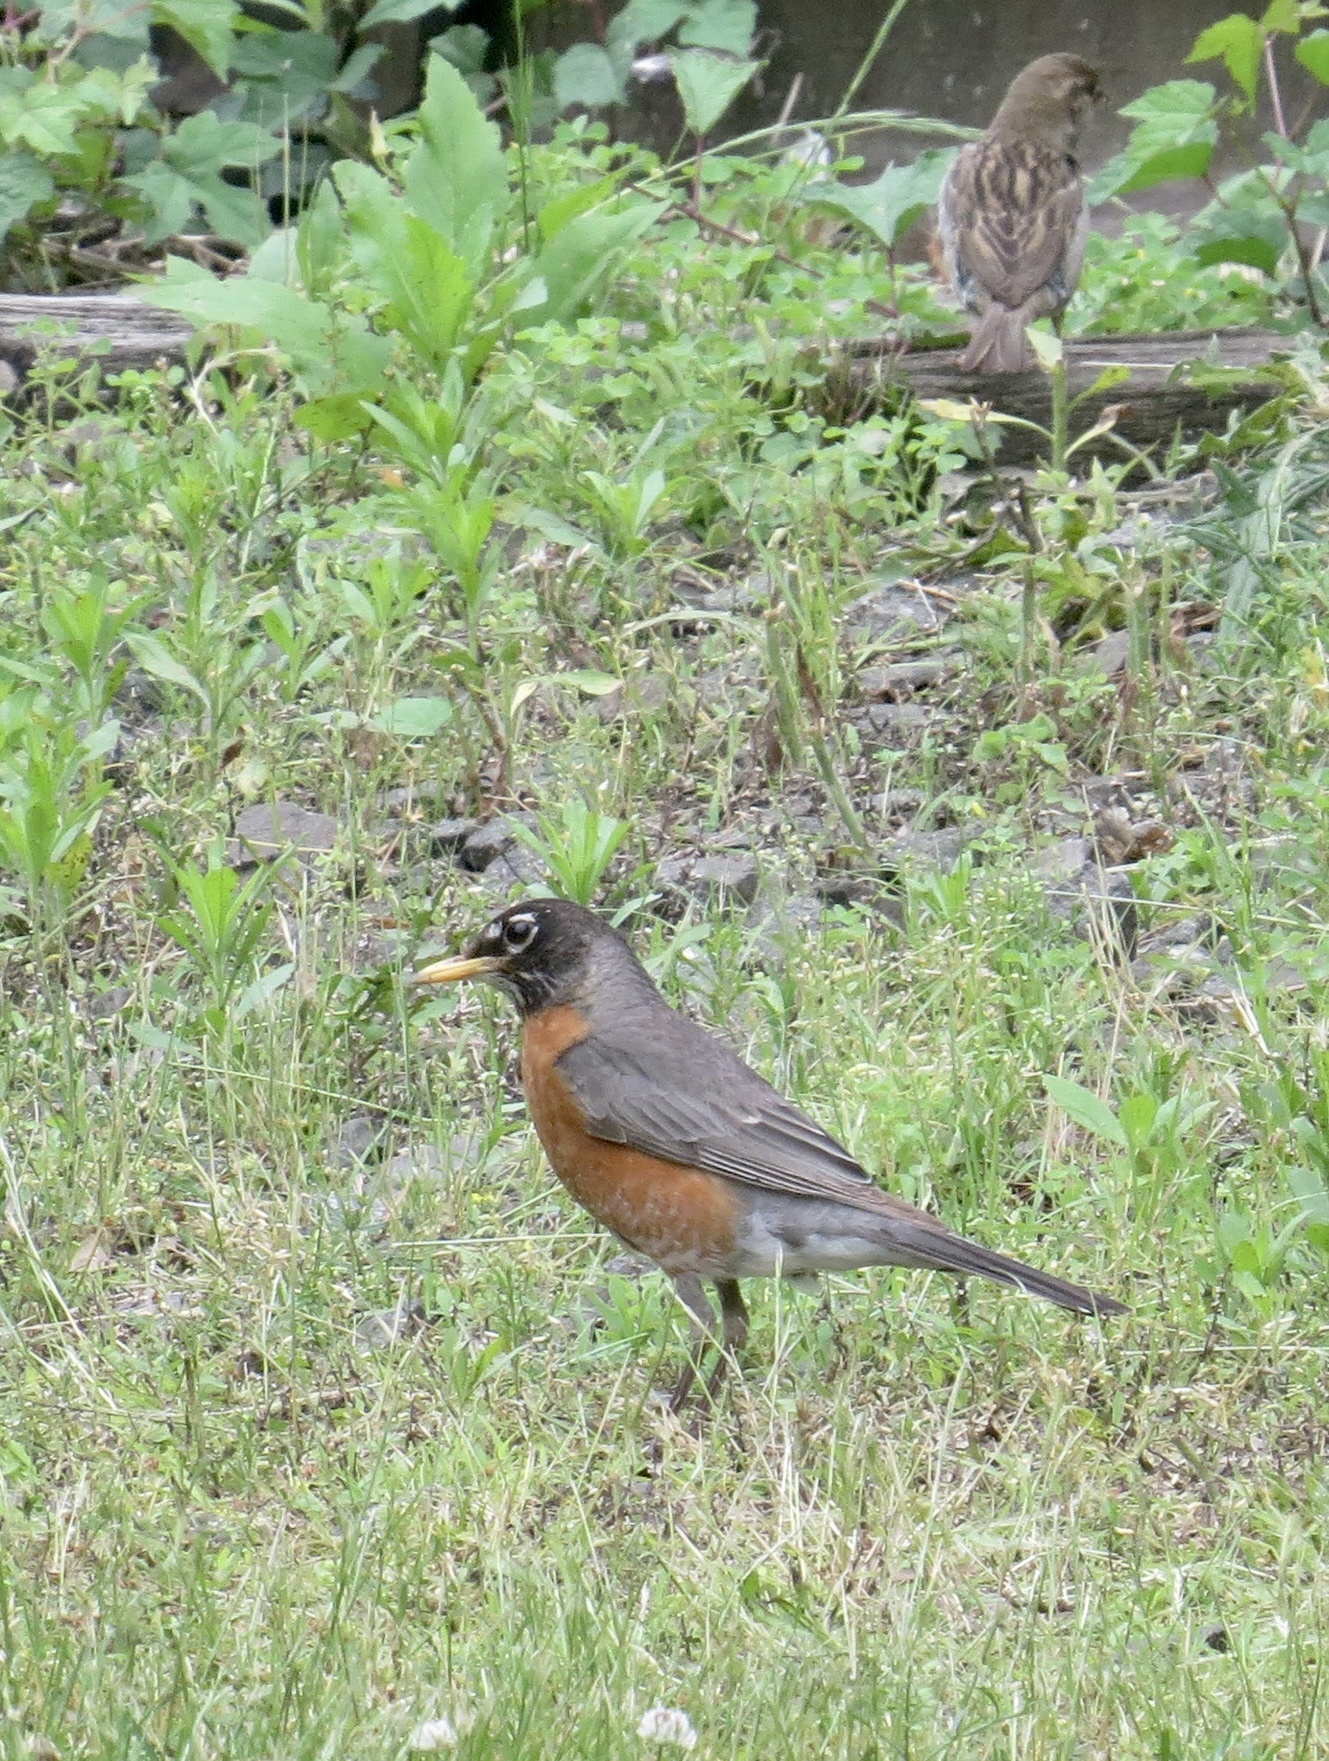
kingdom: Animalia
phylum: Chordata
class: Aves
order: Passeriformes
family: Turdidae
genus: Turdus
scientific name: Turdus migratorius
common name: American robin
